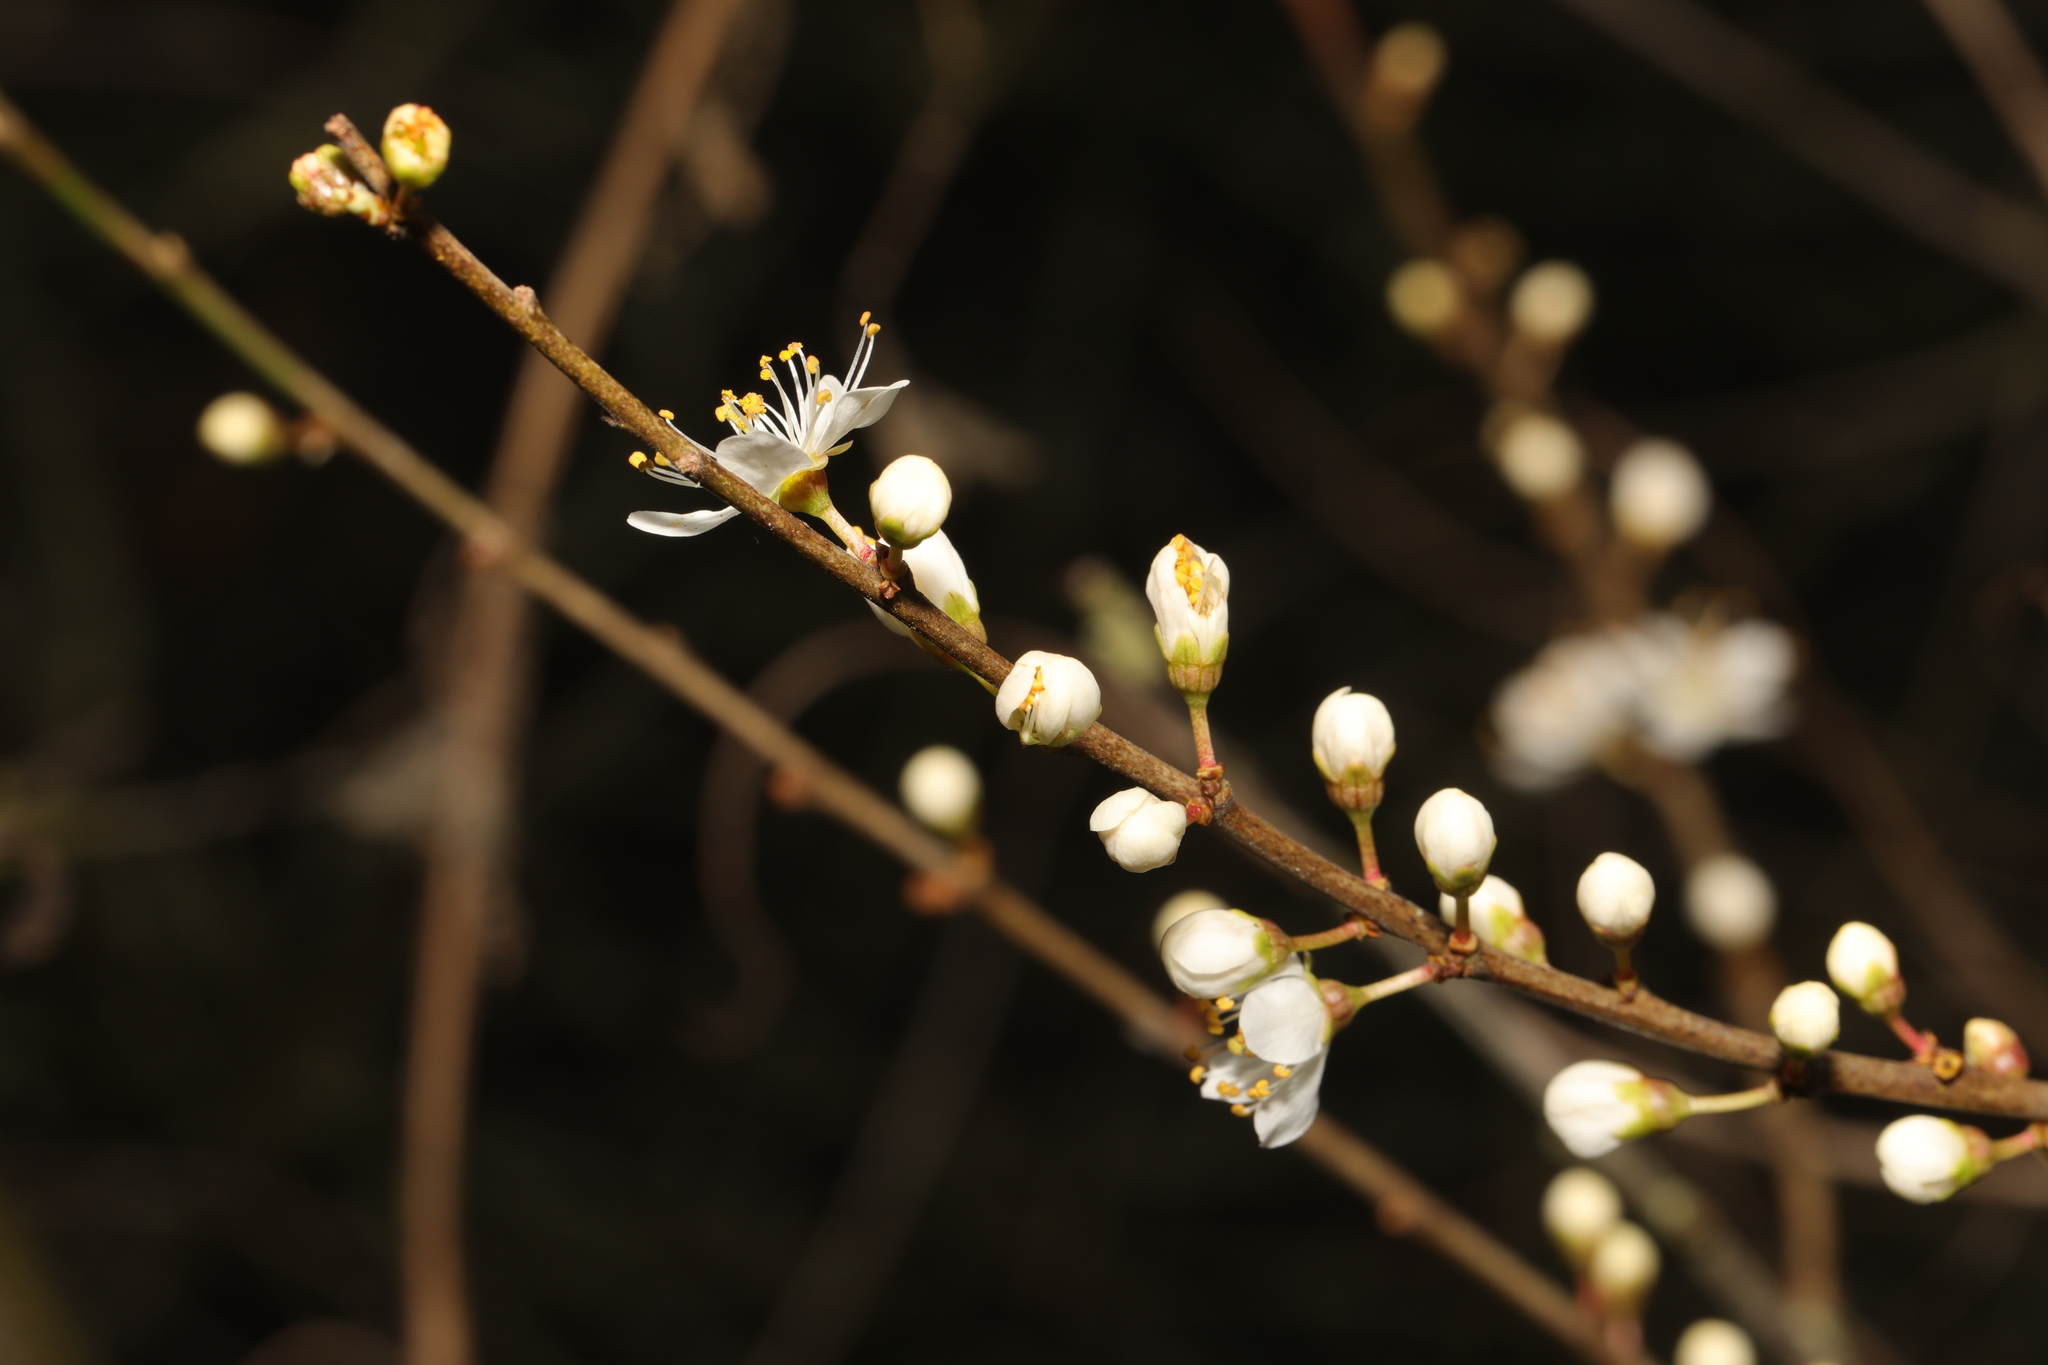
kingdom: Plantae
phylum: Tracheophyta
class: Magnoliopsida
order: Rosales
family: Rosaceae
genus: Prunus
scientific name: Prunus spinosa
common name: Blackthorn
